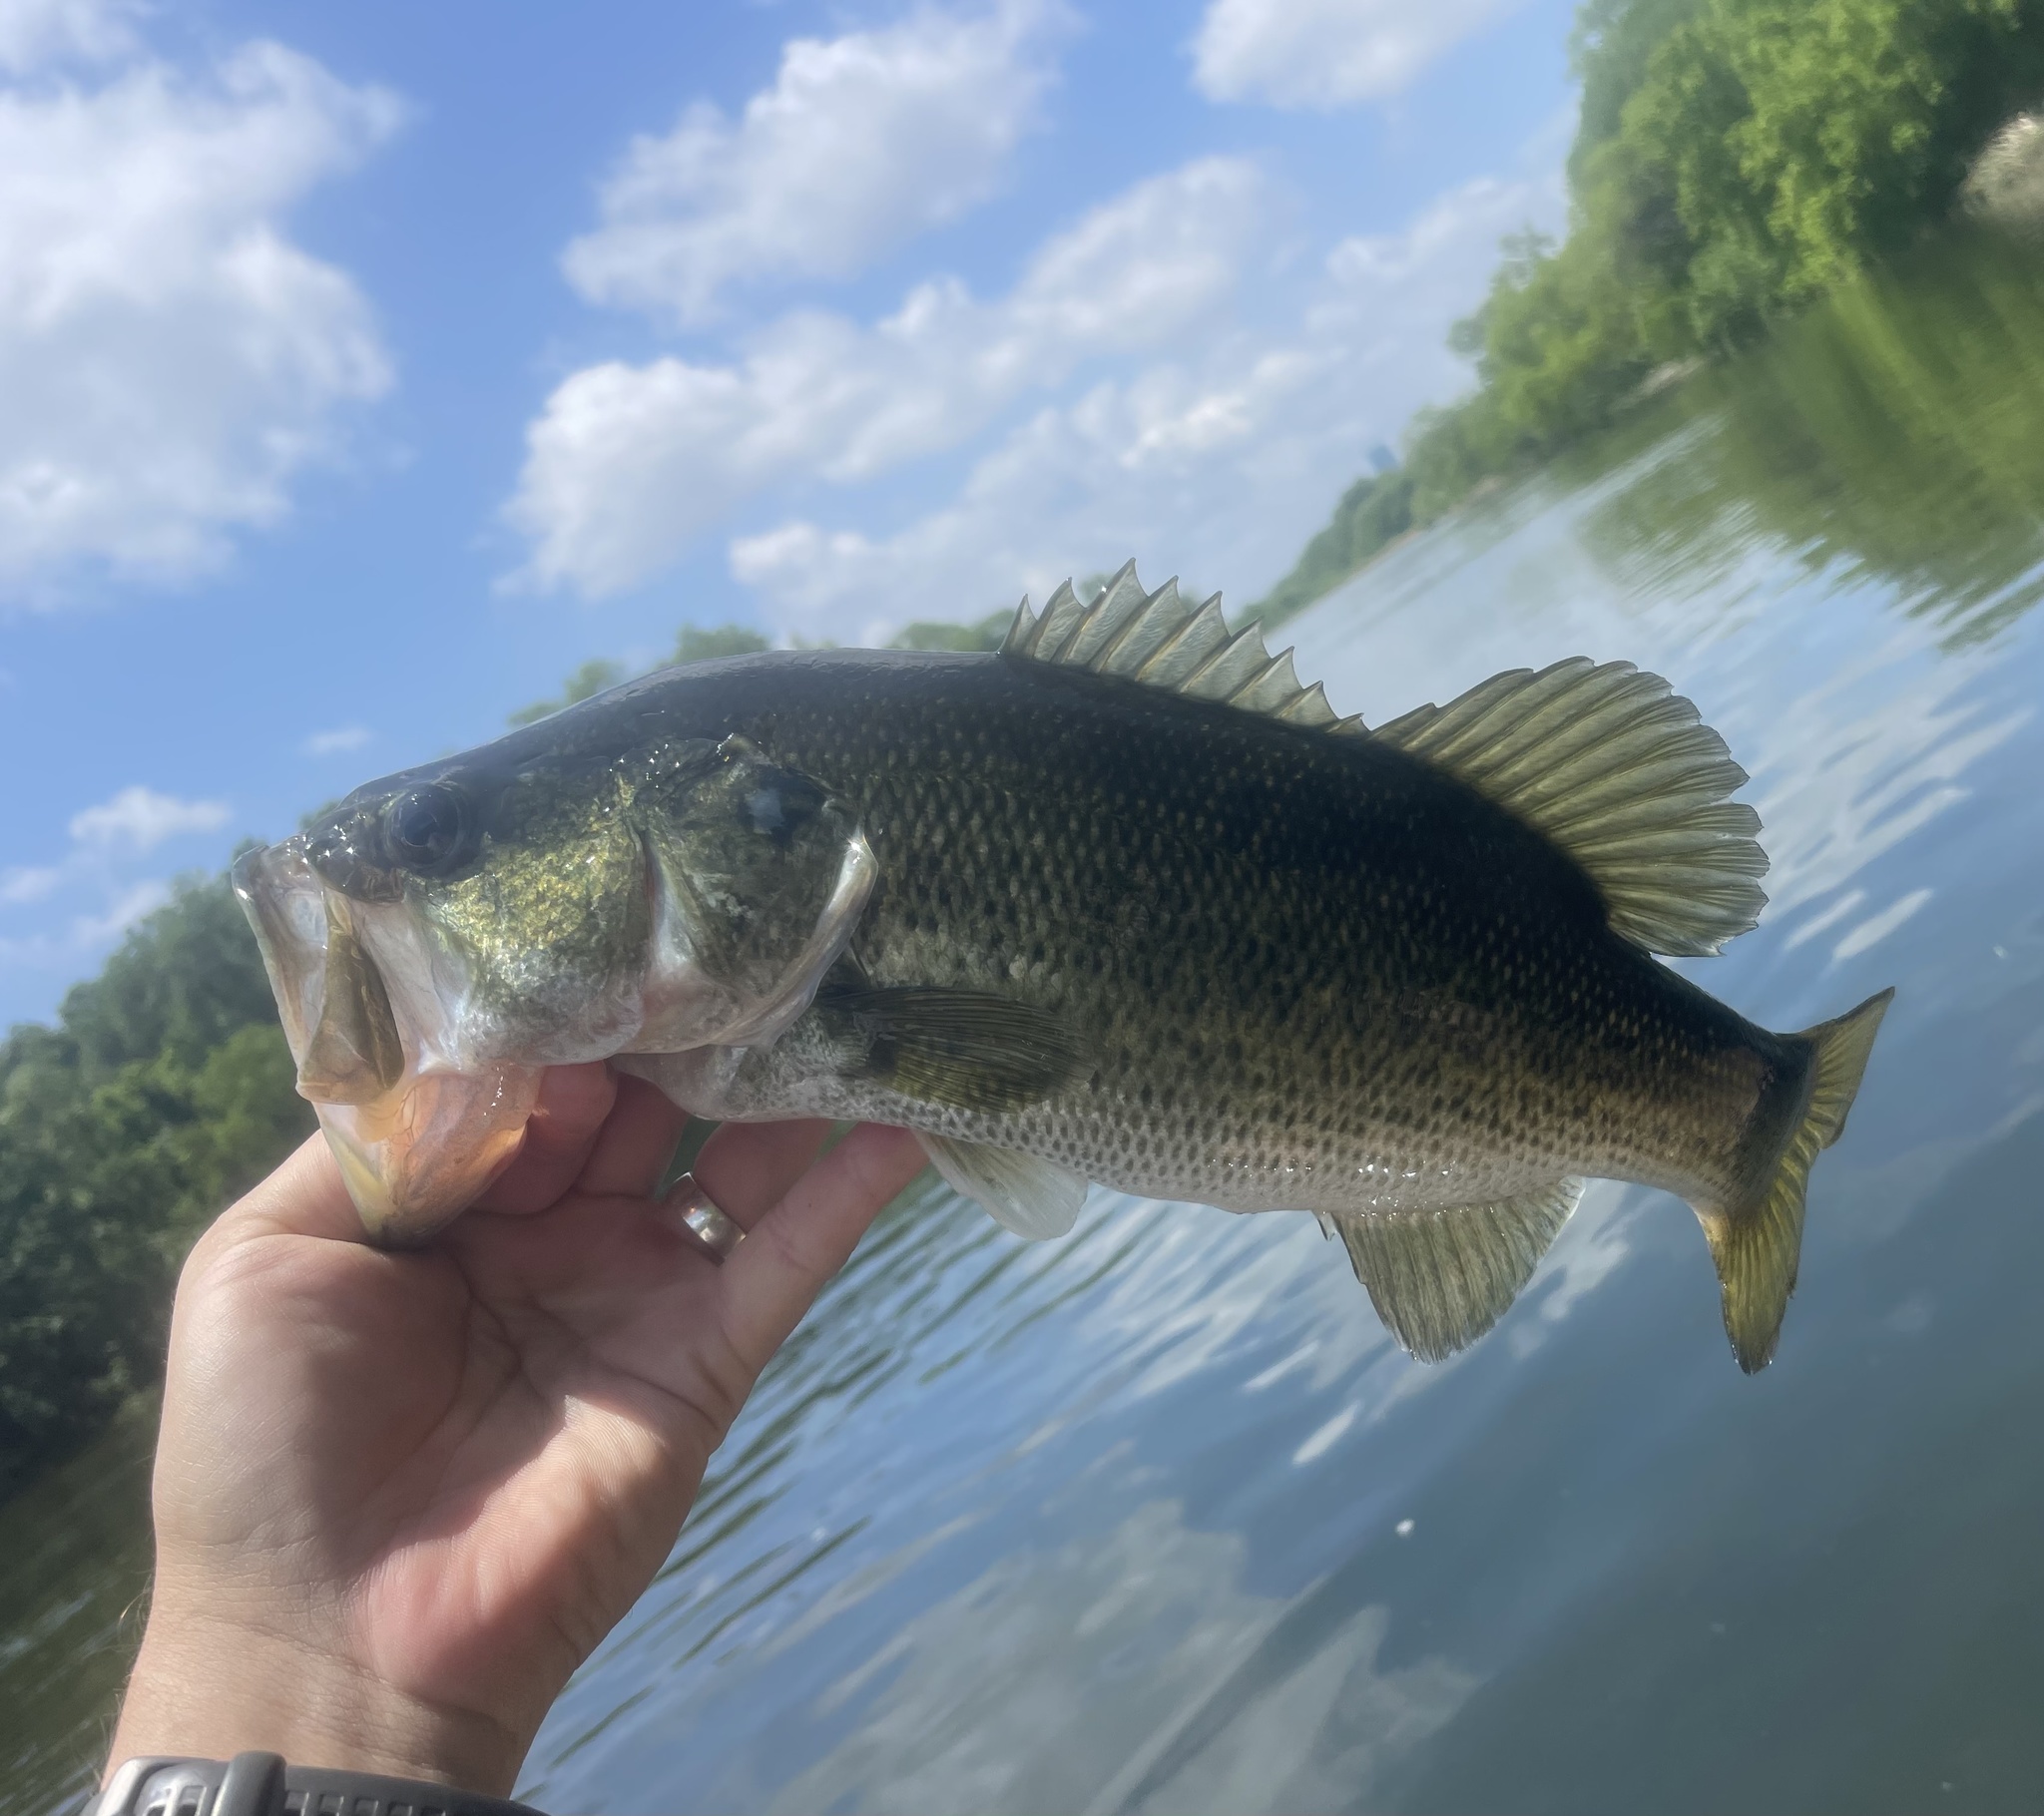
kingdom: Animalia
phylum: Chordata
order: Perciformes
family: Centrarchidae
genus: Micropterus
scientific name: Micropterus
